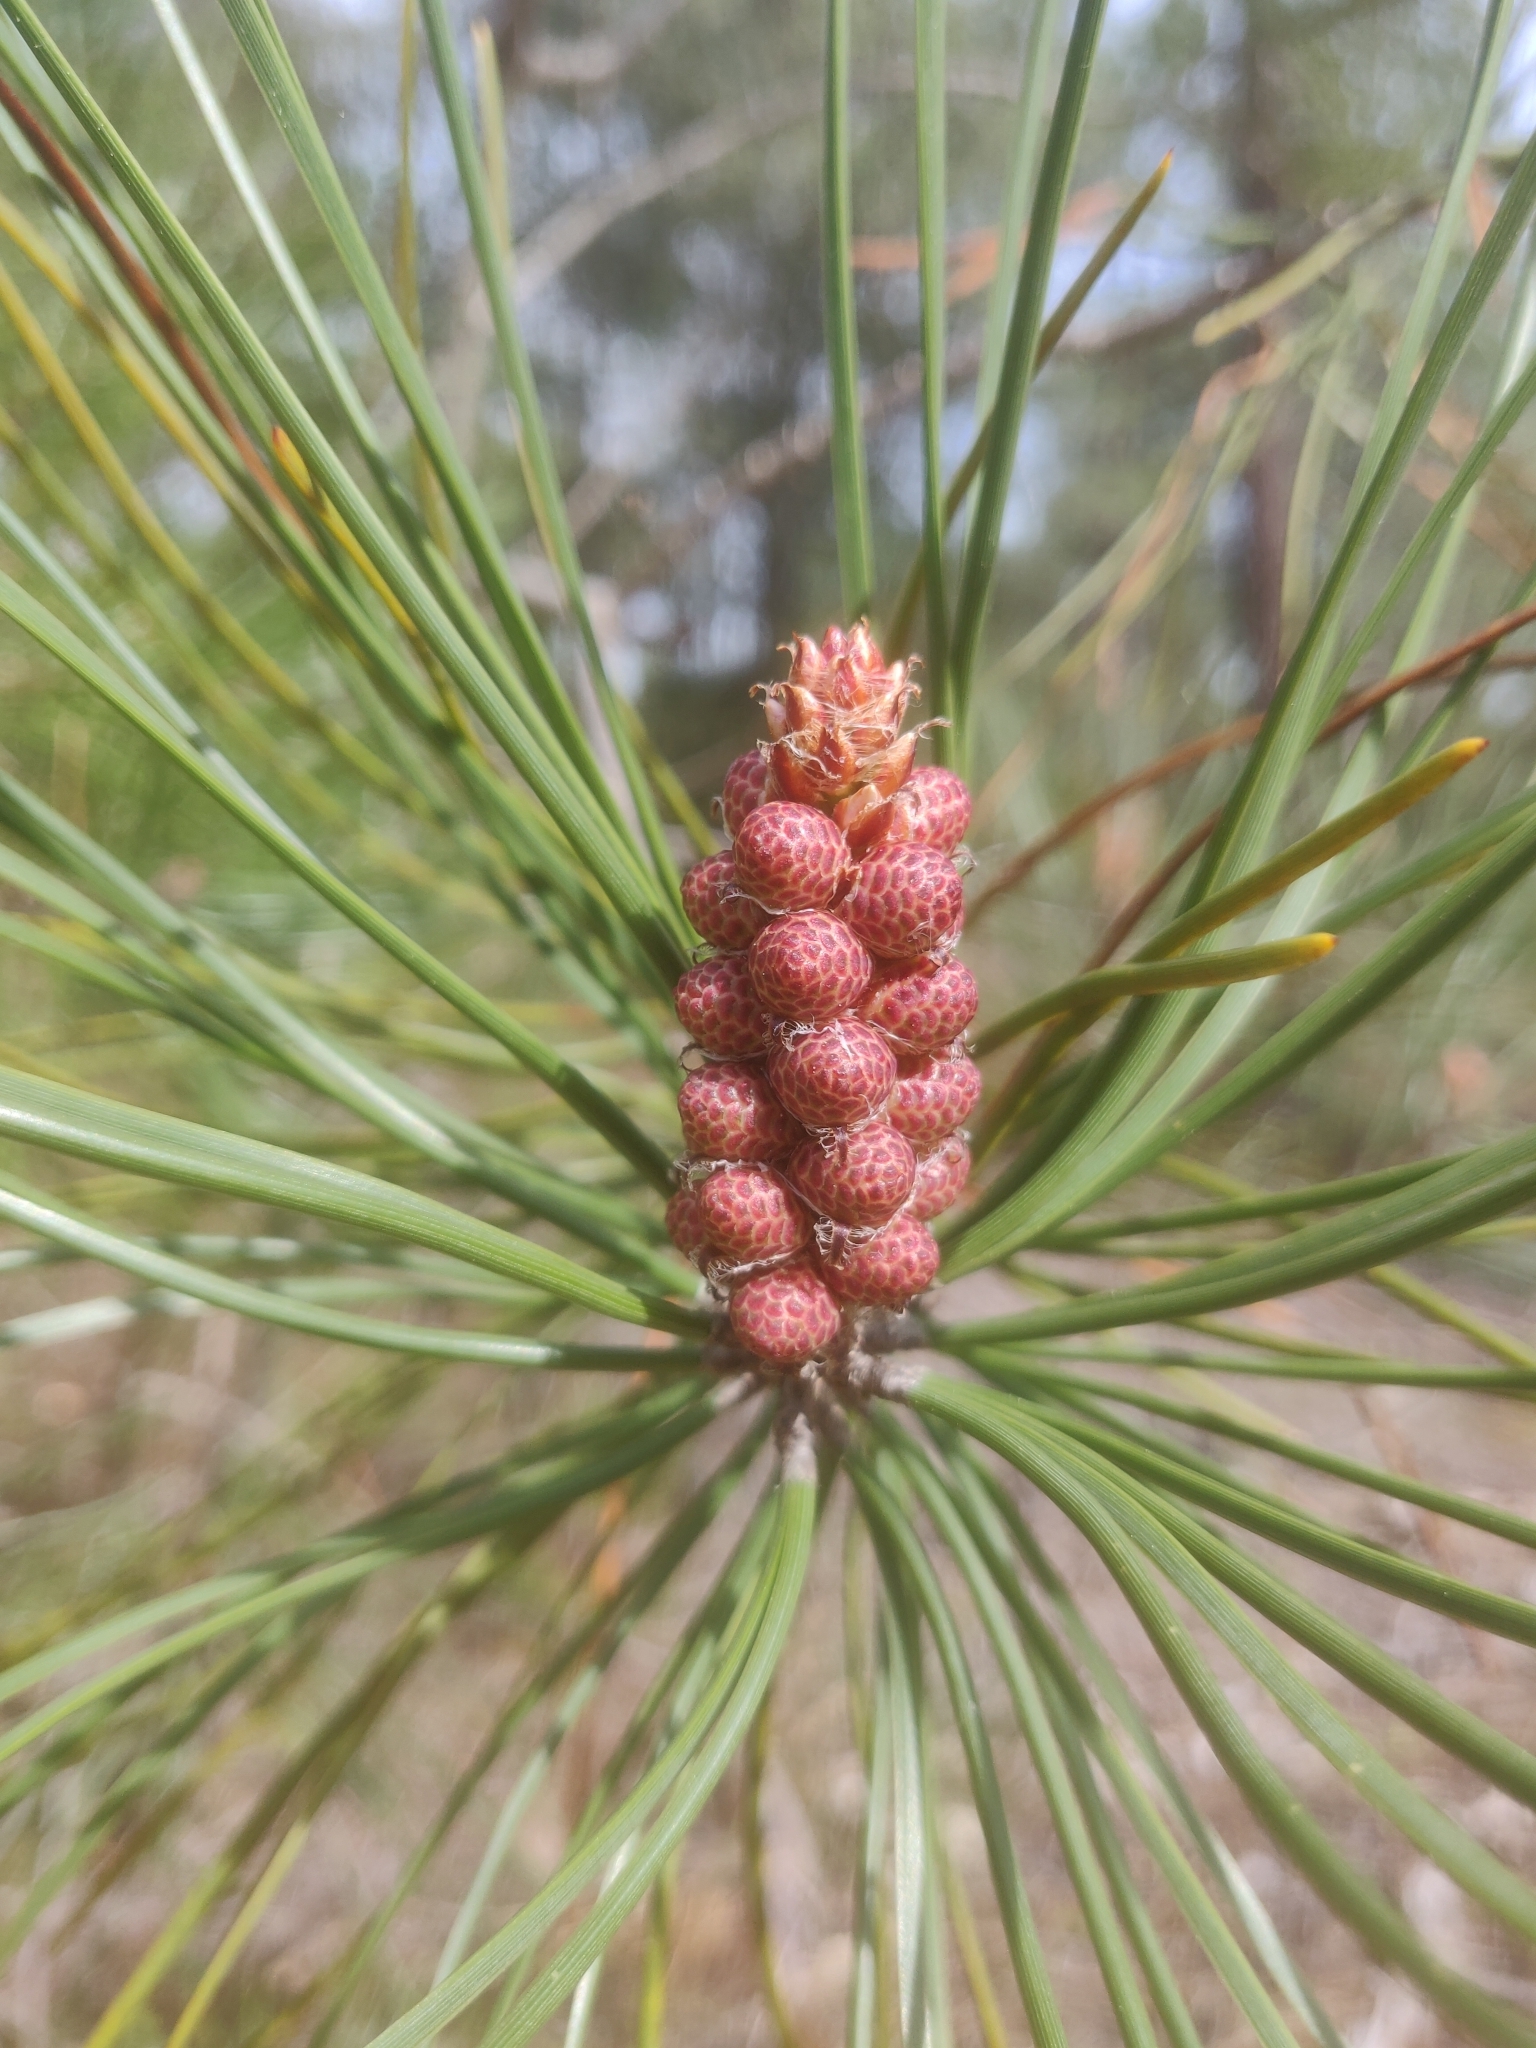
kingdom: Plantae
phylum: Tracheophyta
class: Pinopsida
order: Pinales
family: Pinaceae
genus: Pinus
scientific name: Pinus pinaster
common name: Maritime pine
